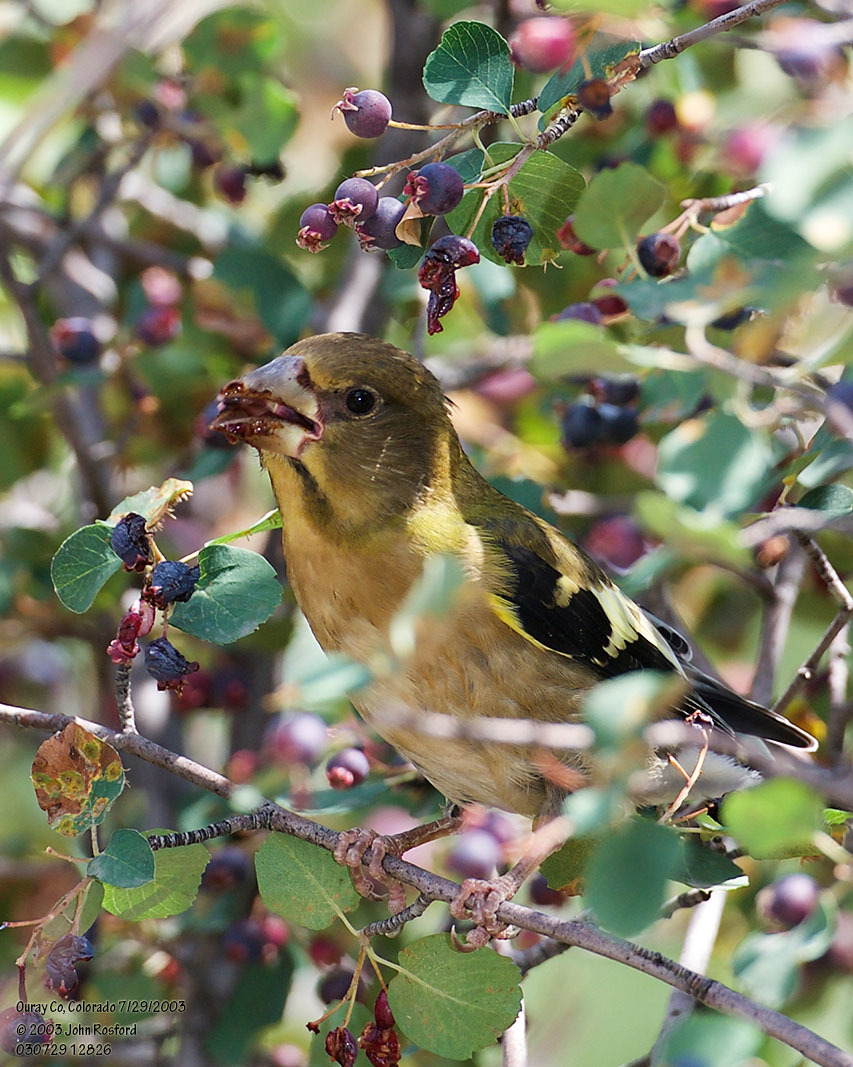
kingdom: Animalia
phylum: Chordata
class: Aves
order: Passeriformes
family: Fringillidae
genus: Hesperiphona
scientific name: Hesperiphona vespertina
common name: Evening grosbeak
